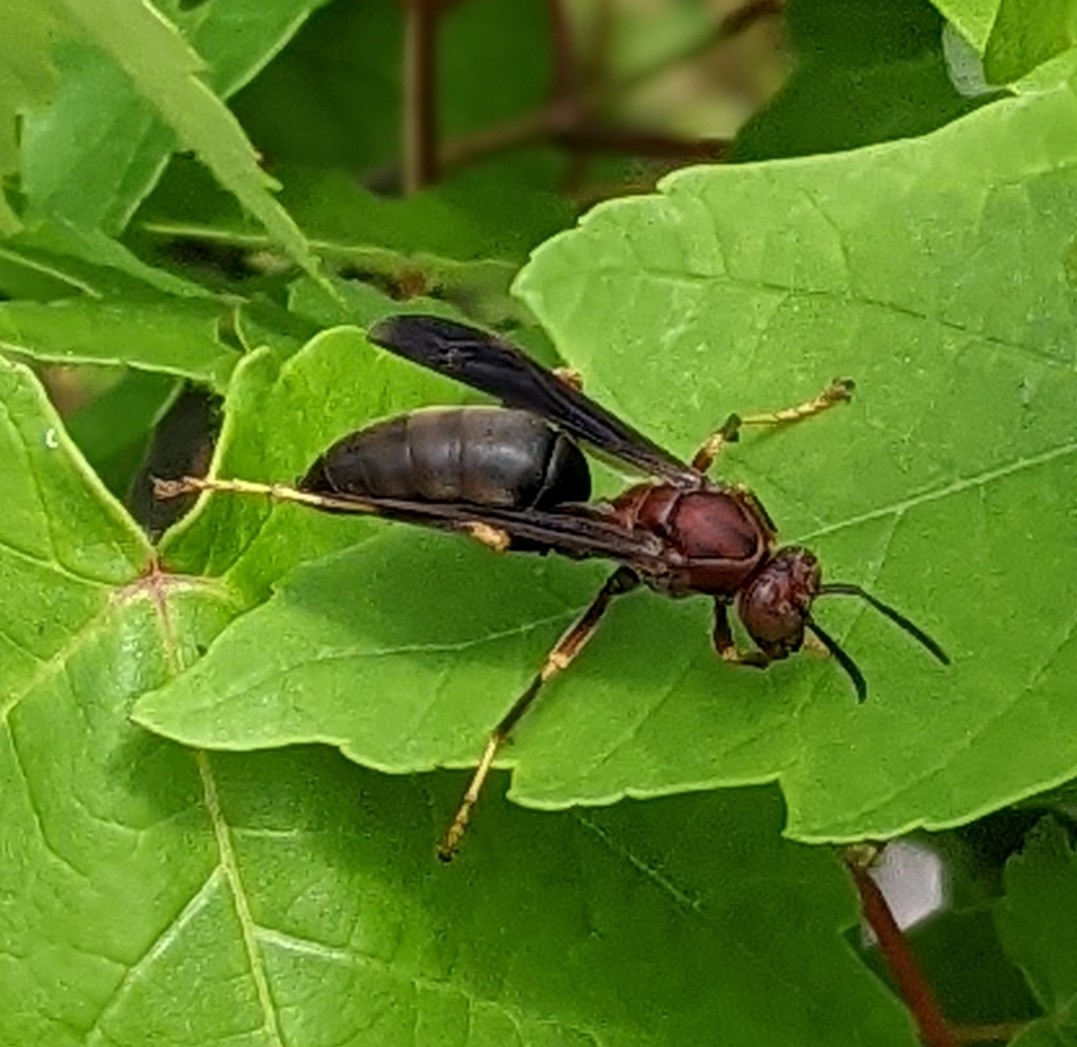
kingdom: Animalia
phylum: Arthropoda
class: Insecta
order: Hymenoptera
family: Eumenidae
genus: Polistes
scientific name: Polistes metricus
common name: Metric paper wasp
